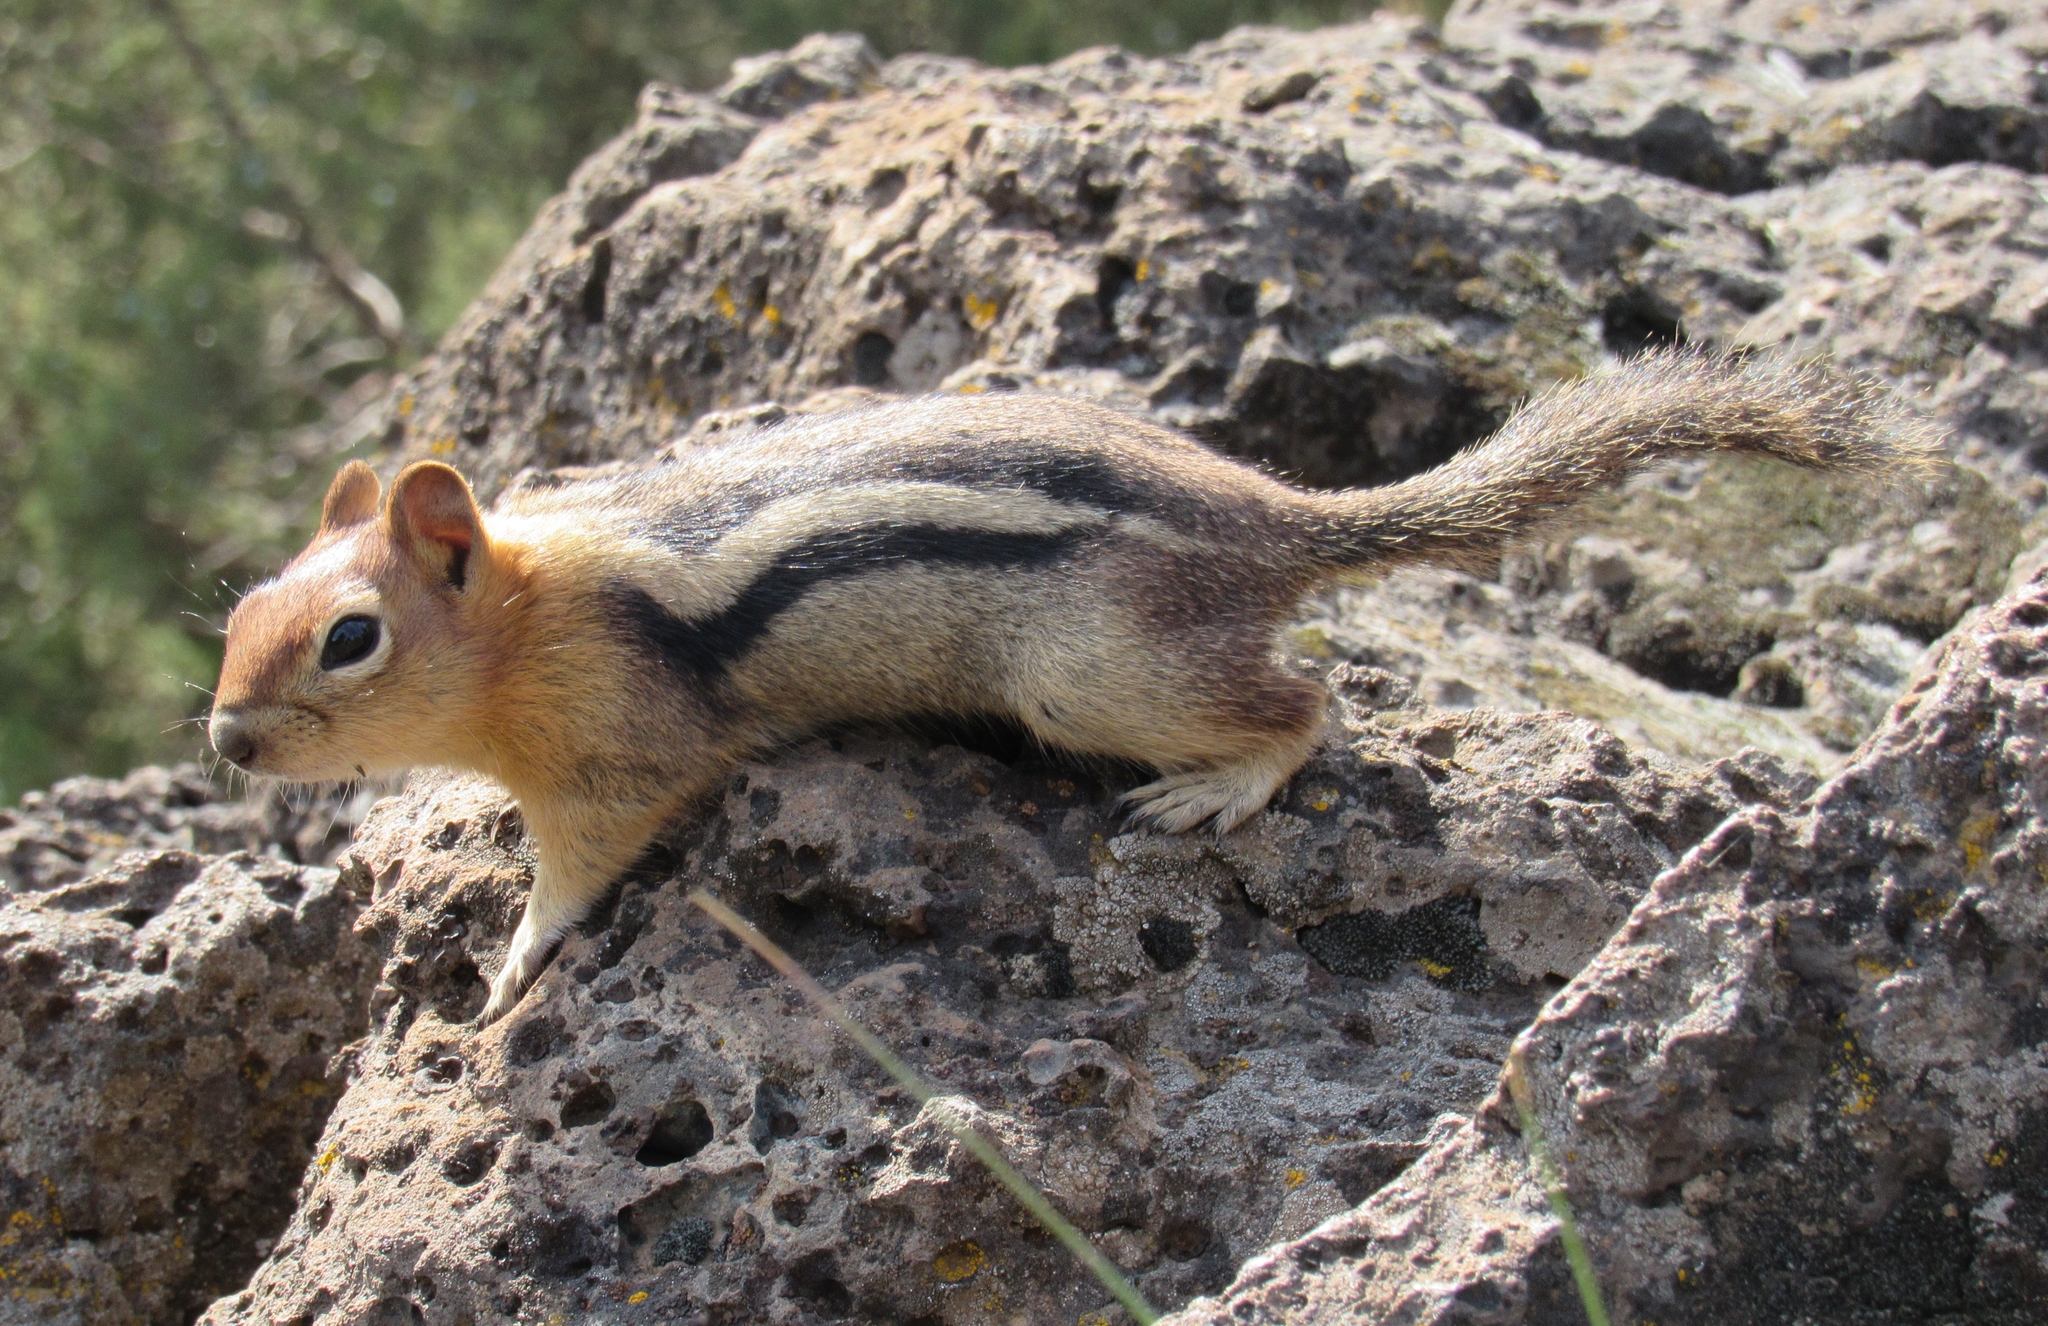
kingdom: Animalia
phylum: Chordata
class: Mammalia
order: Rodentia
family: Sciuridae
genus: Callospermophilus
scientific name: Callospermophilus lateralis
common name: Golden-mantled ground squirrel
